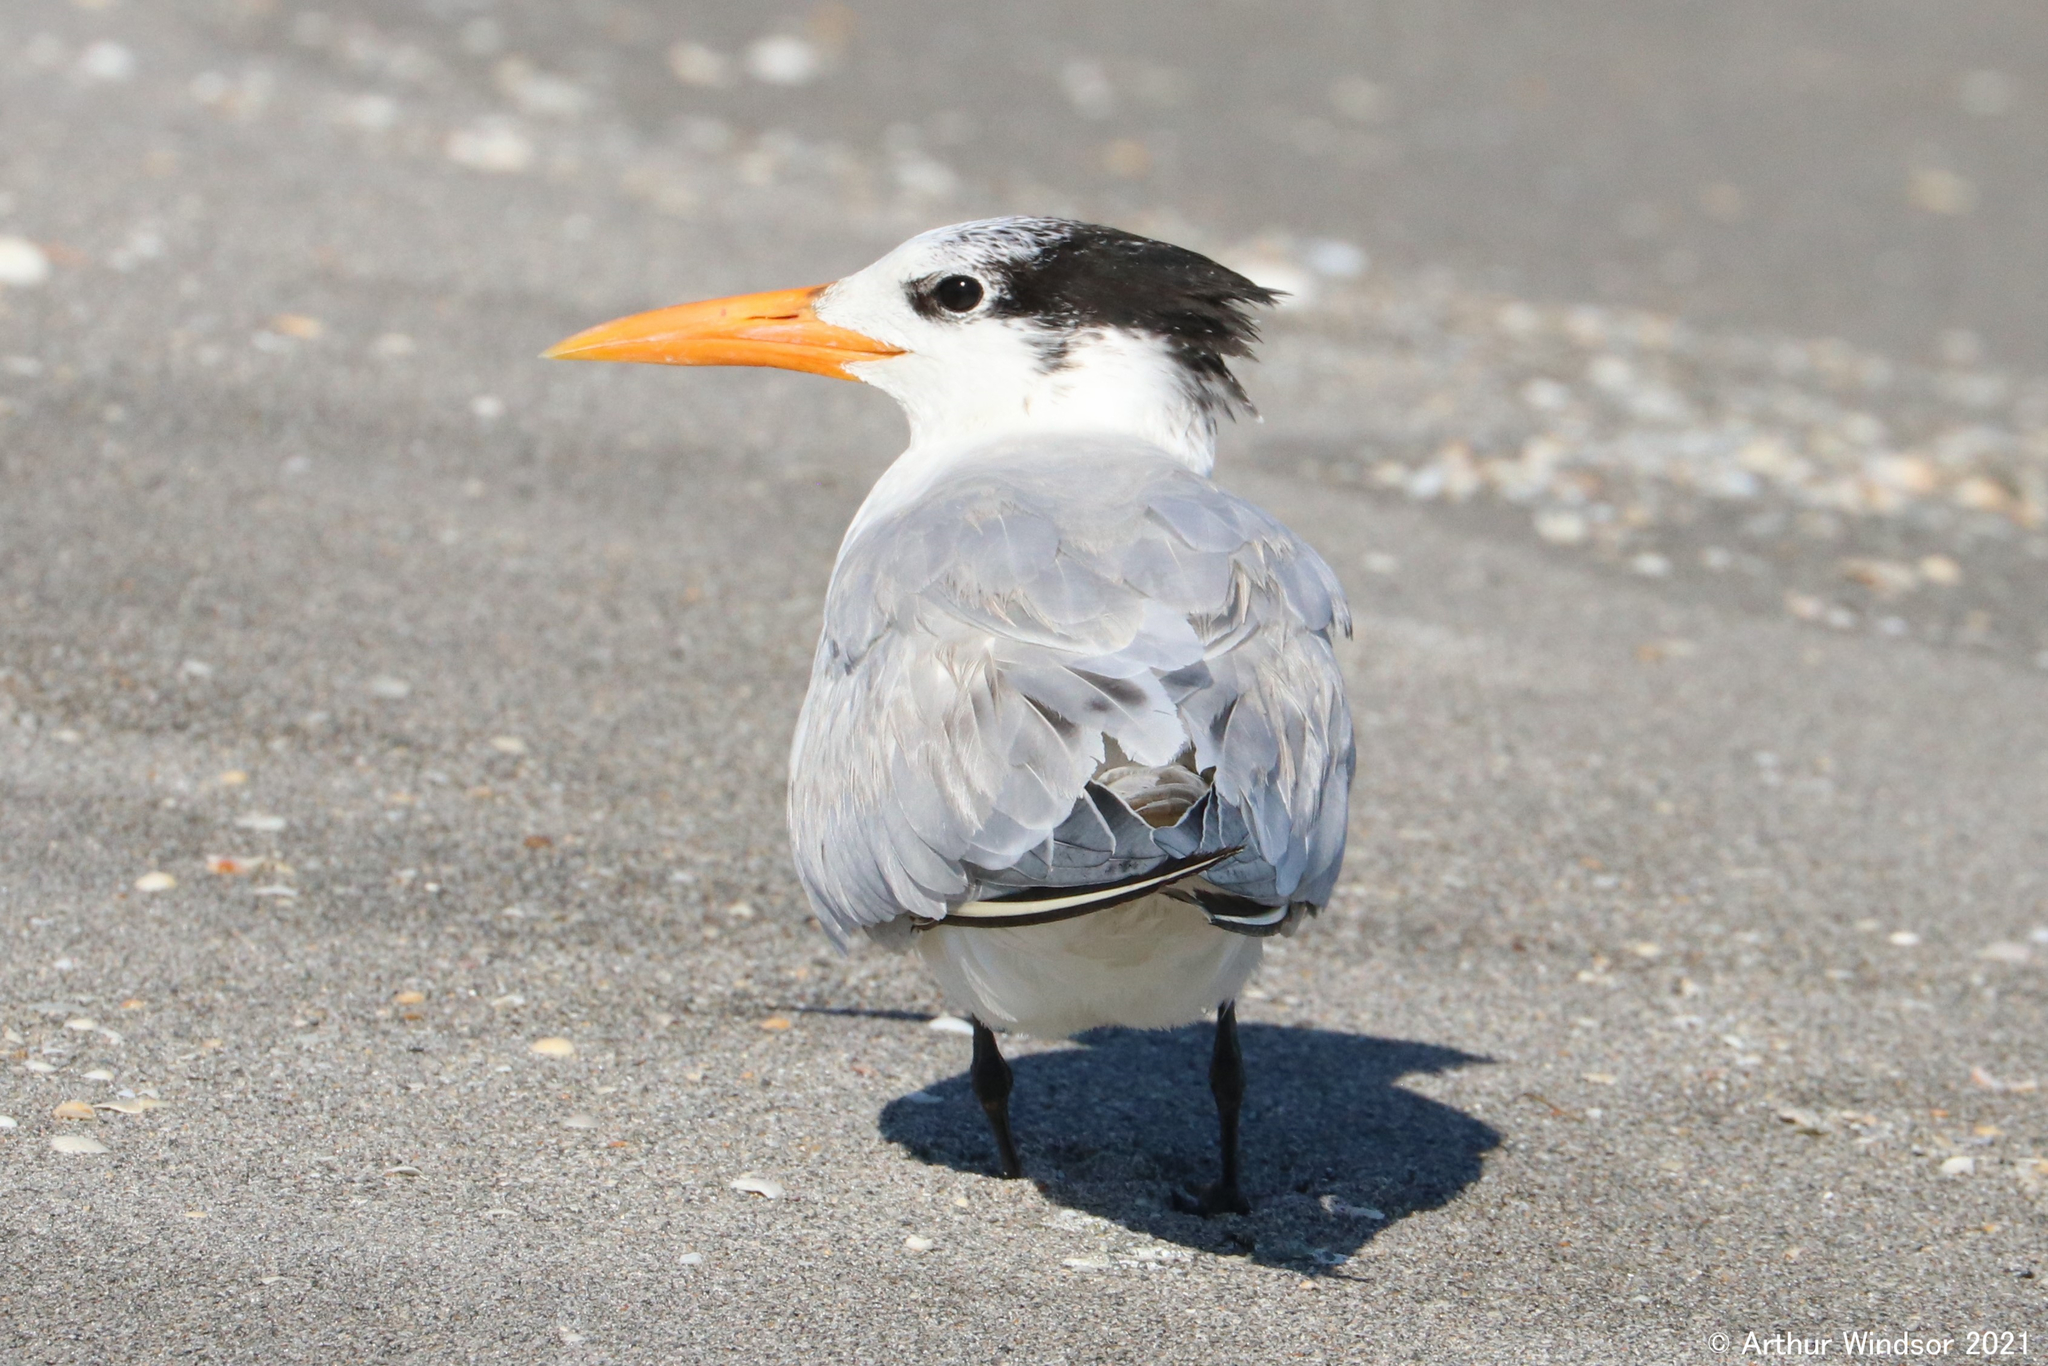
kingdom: Animalia
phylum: Chordata
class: Aves
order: Charadriiformes
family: Laridae
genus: Thalasseus
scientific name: Thalasseus maximus
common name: Royal tern
